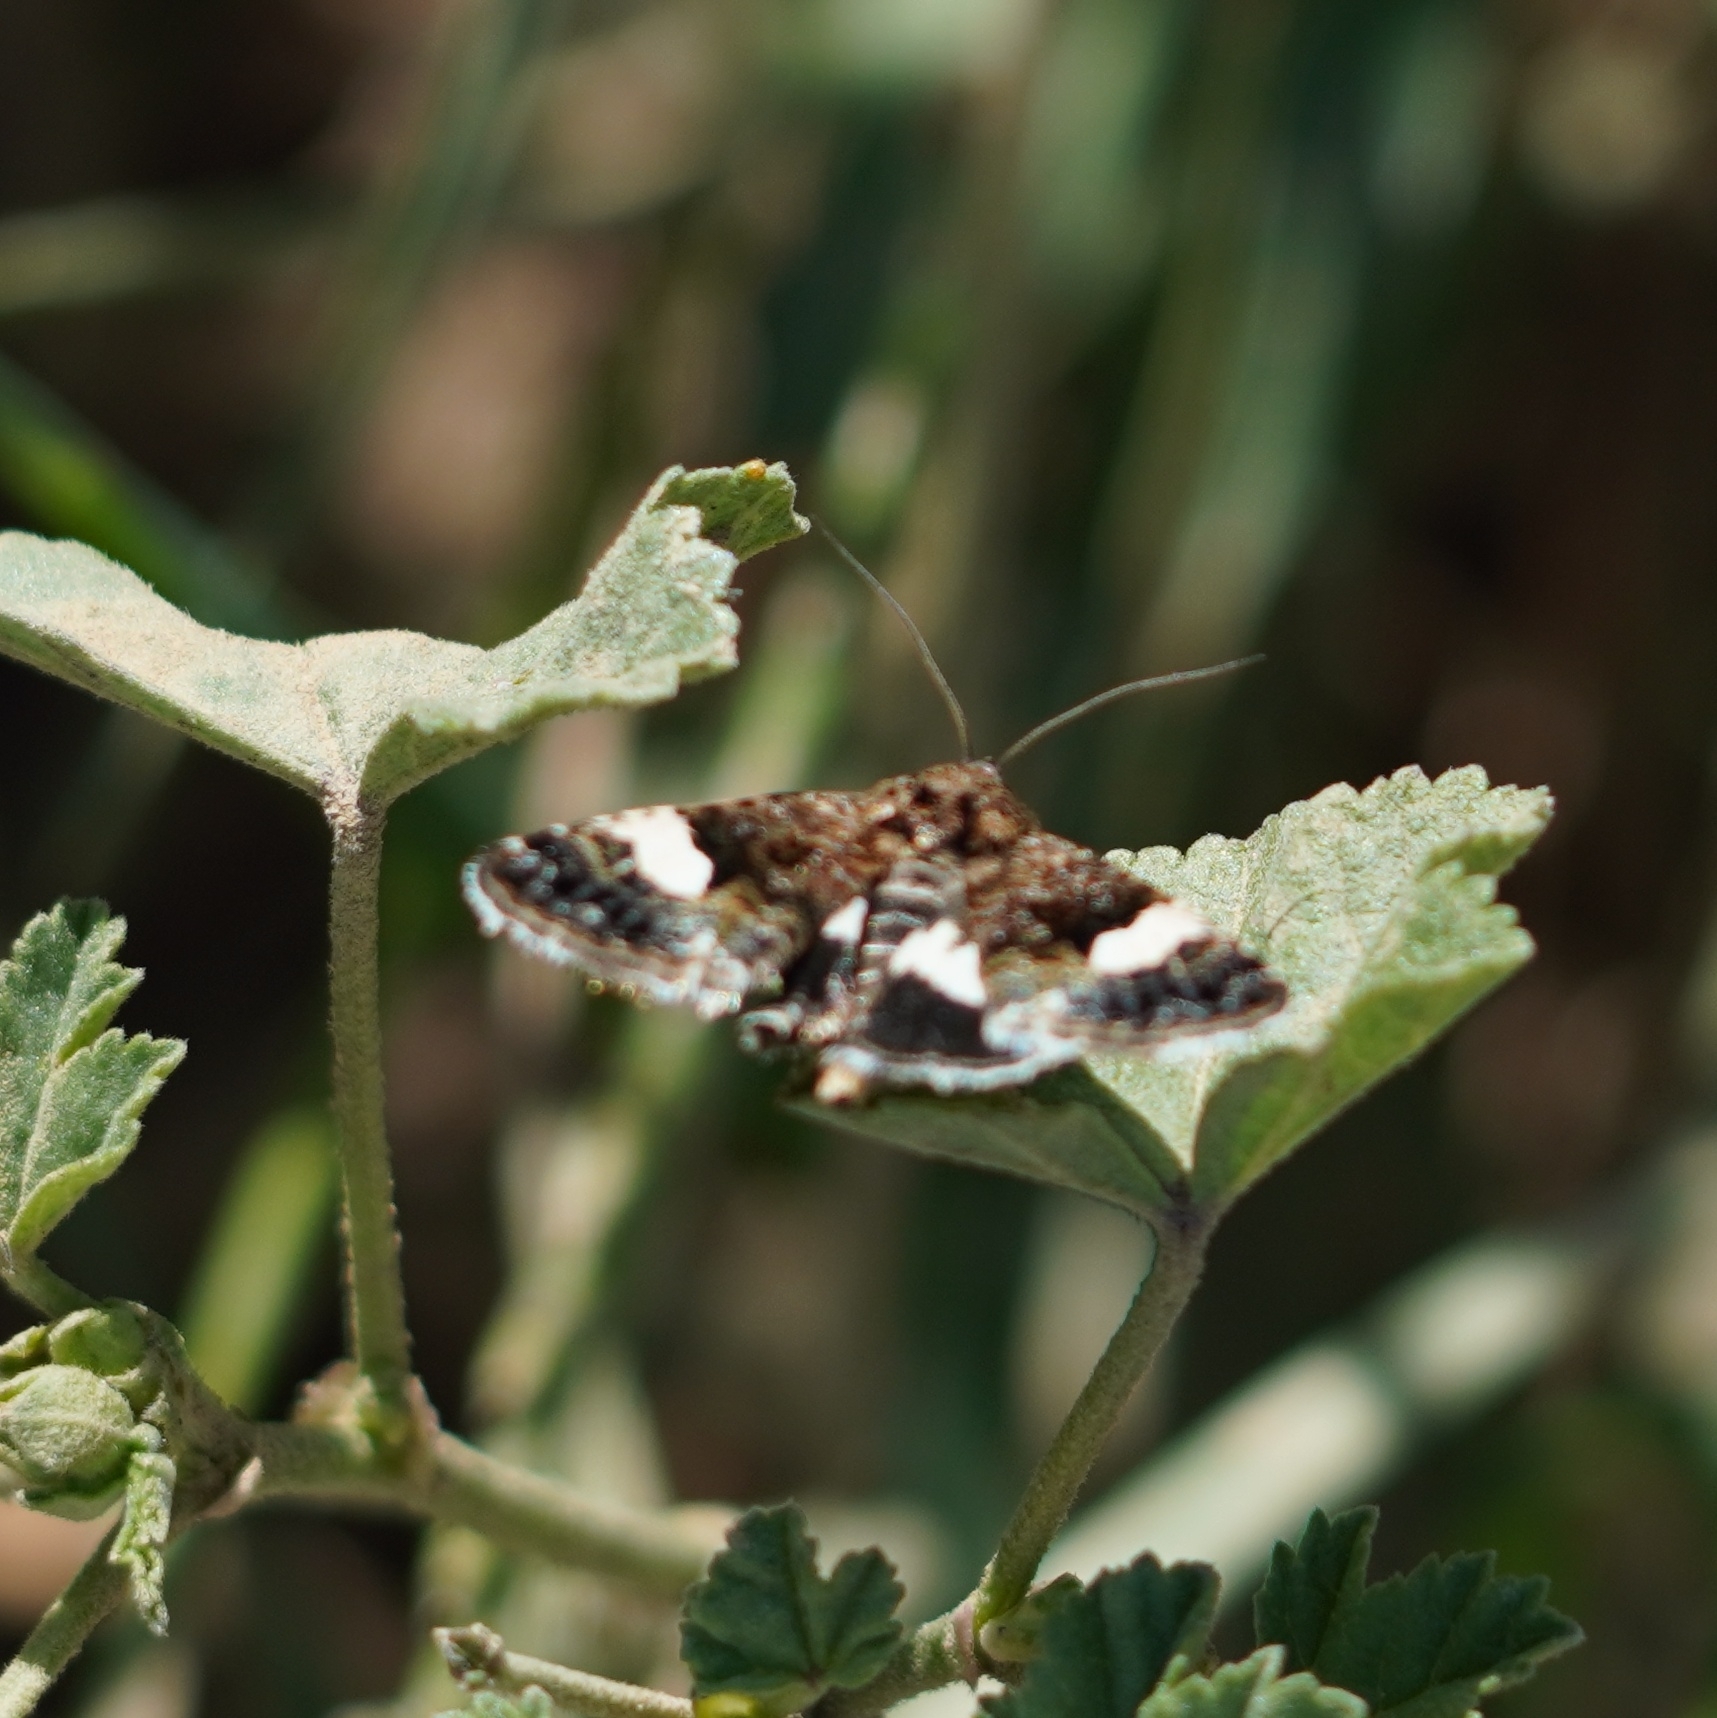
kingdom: Animalia
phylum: Arthropoda
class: Insecta
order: Lepidoptera
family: Erebidae
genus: Tyta
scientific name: Tyta luctuosa
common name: Four-spotted
